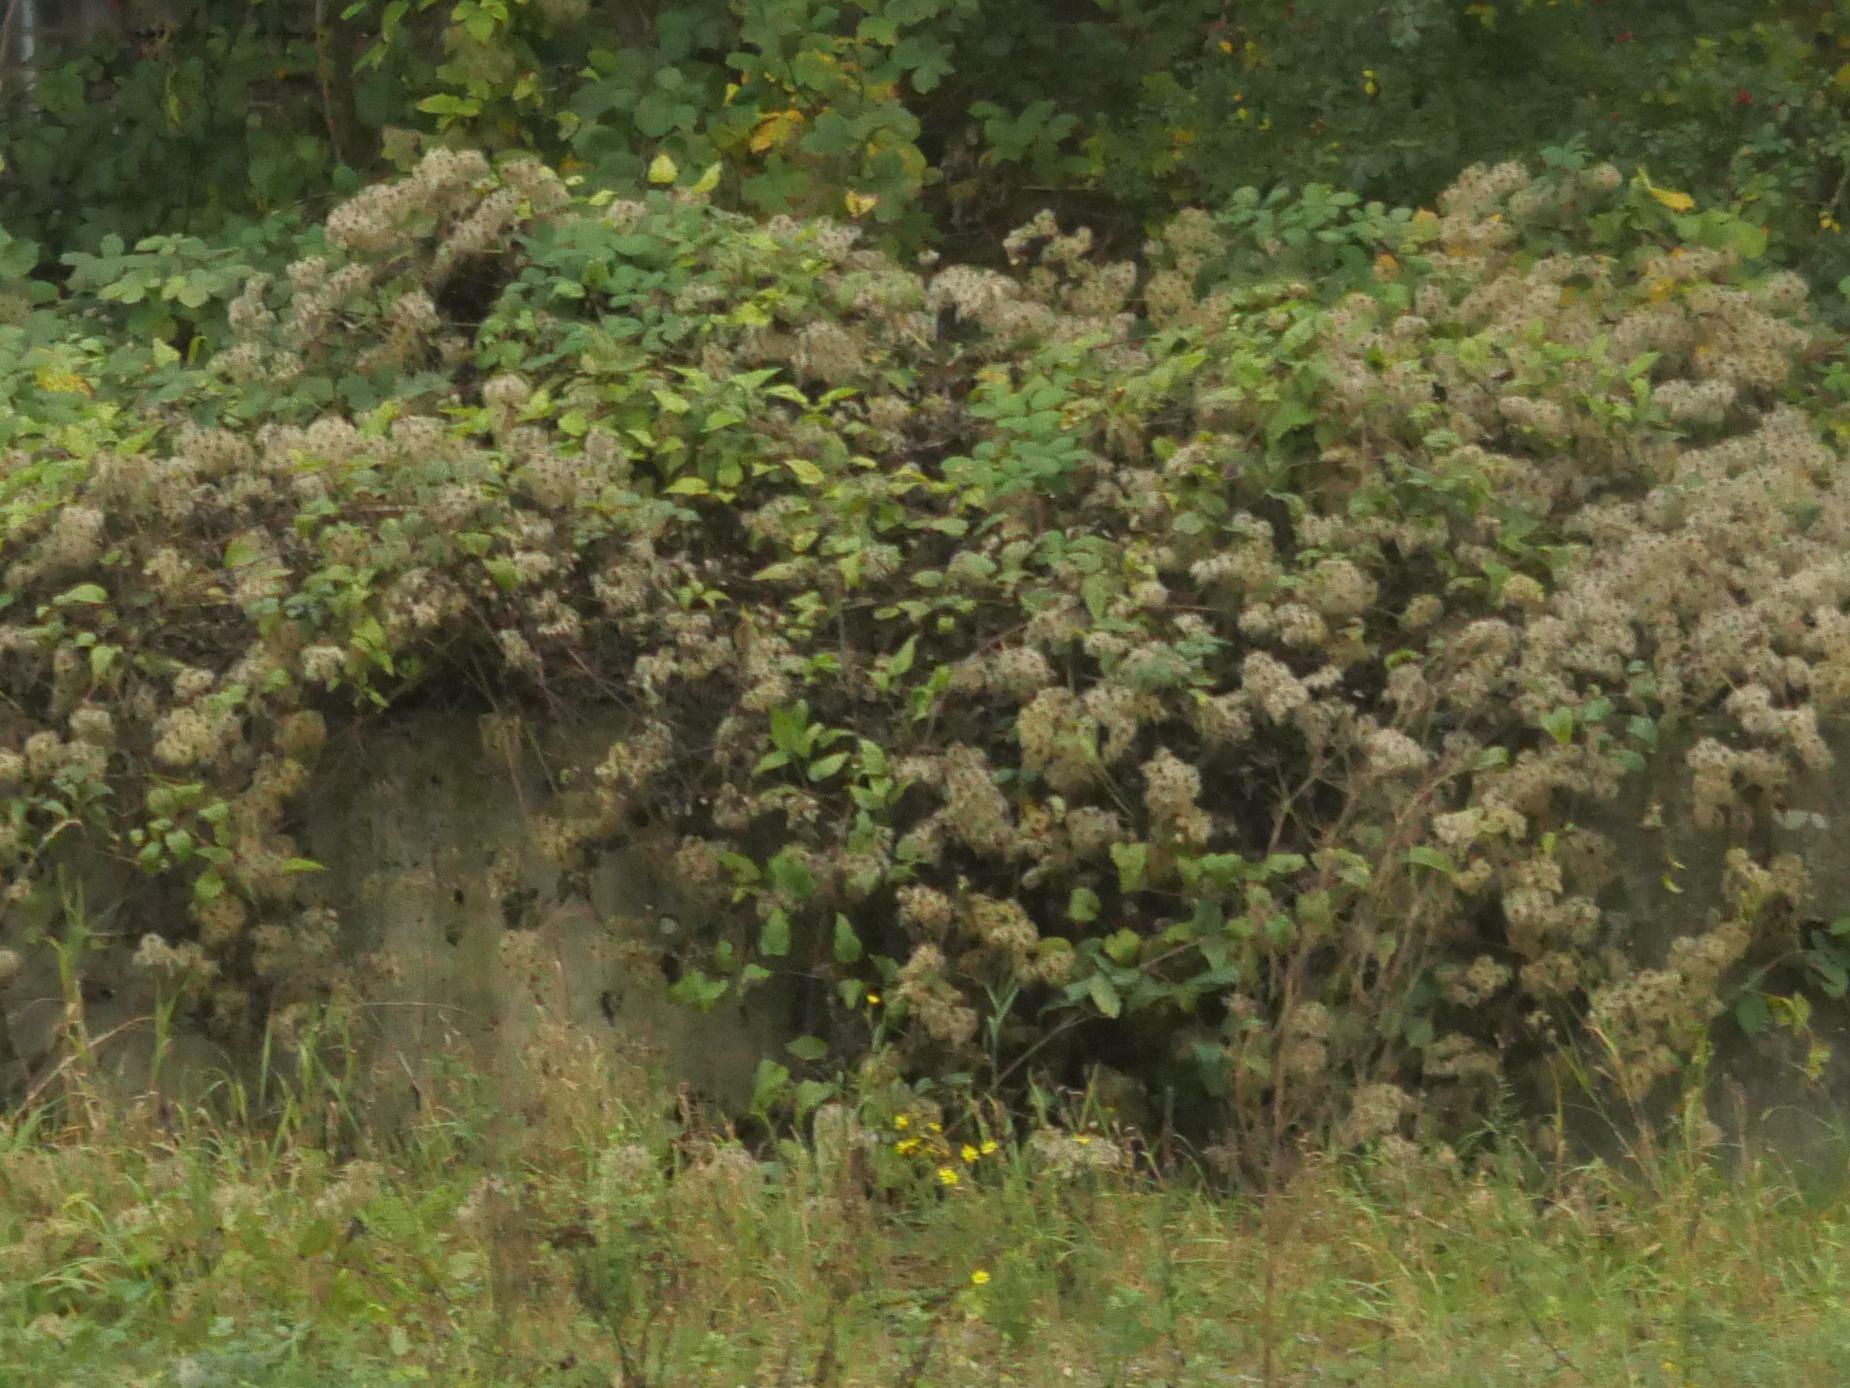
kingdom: Plantae
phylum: Tracheophyta
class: Magnoliopsida
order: Ranunculales
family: Ranunculaceae
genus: Clematis
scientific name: Clematis vitalba
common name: Evergreen clematis
